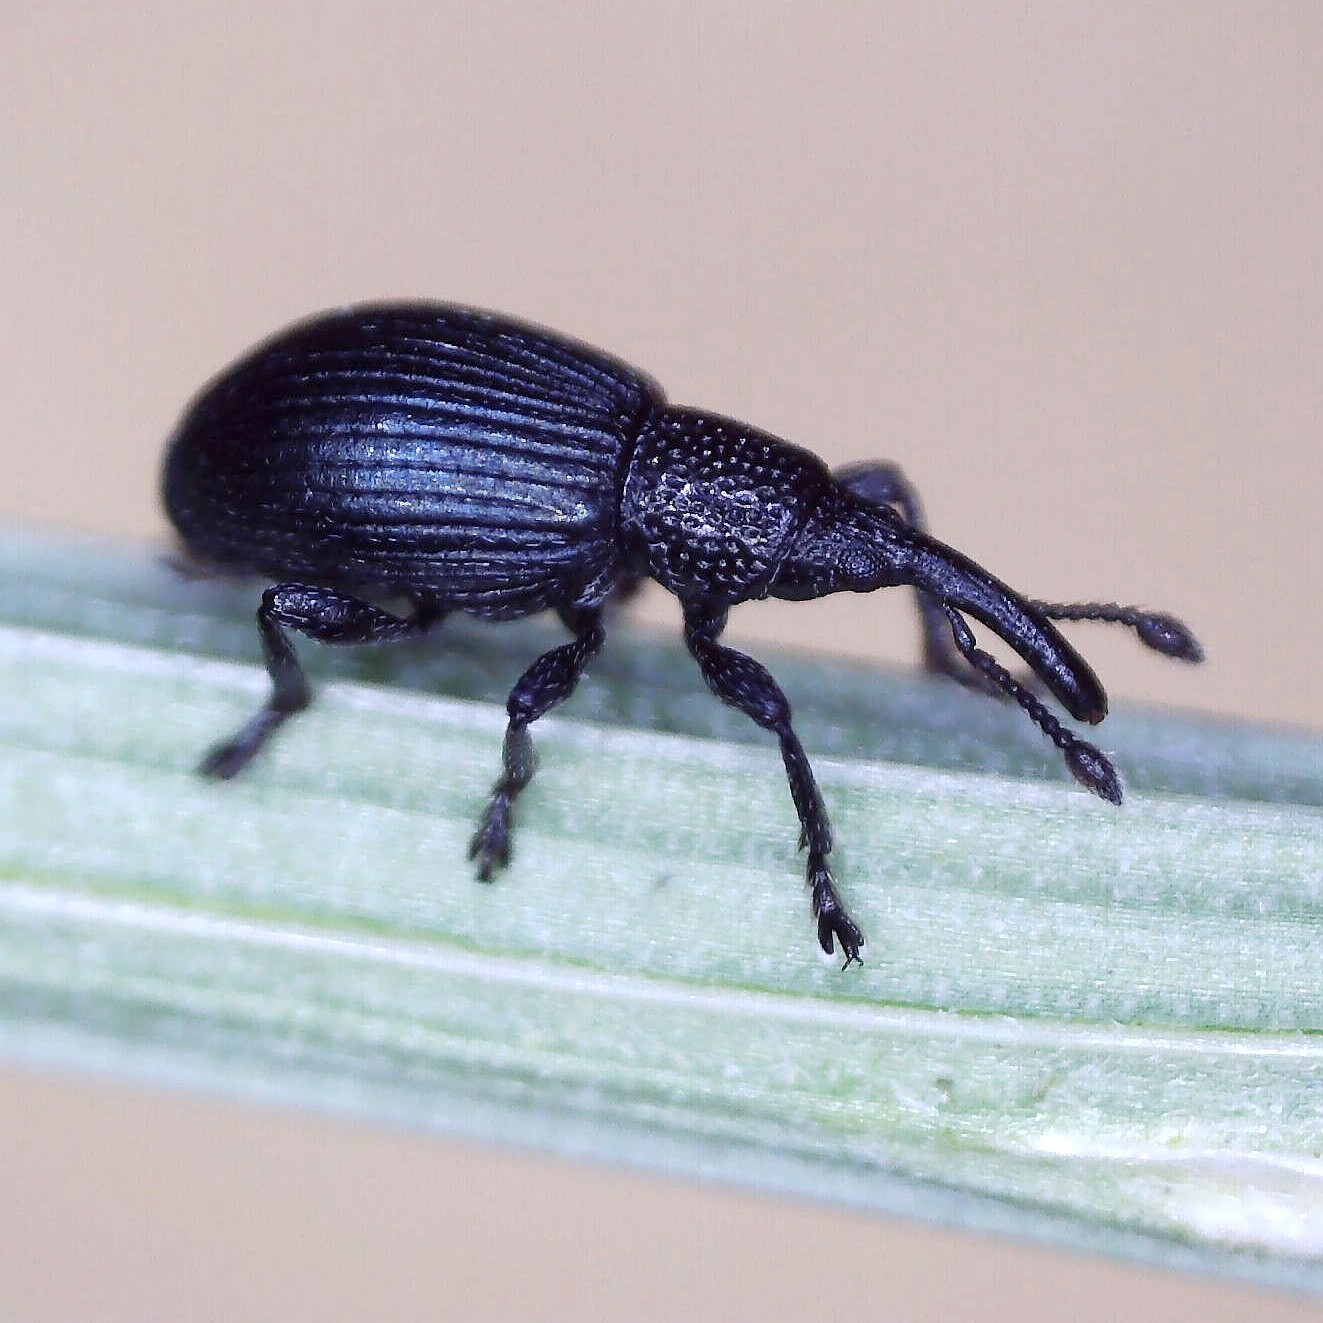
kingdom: Animalia
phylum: Arthropoda
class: Insecta
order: Coleoptera
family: Apionidae
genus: Ceratapion
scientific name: Ceratapion onopordi
